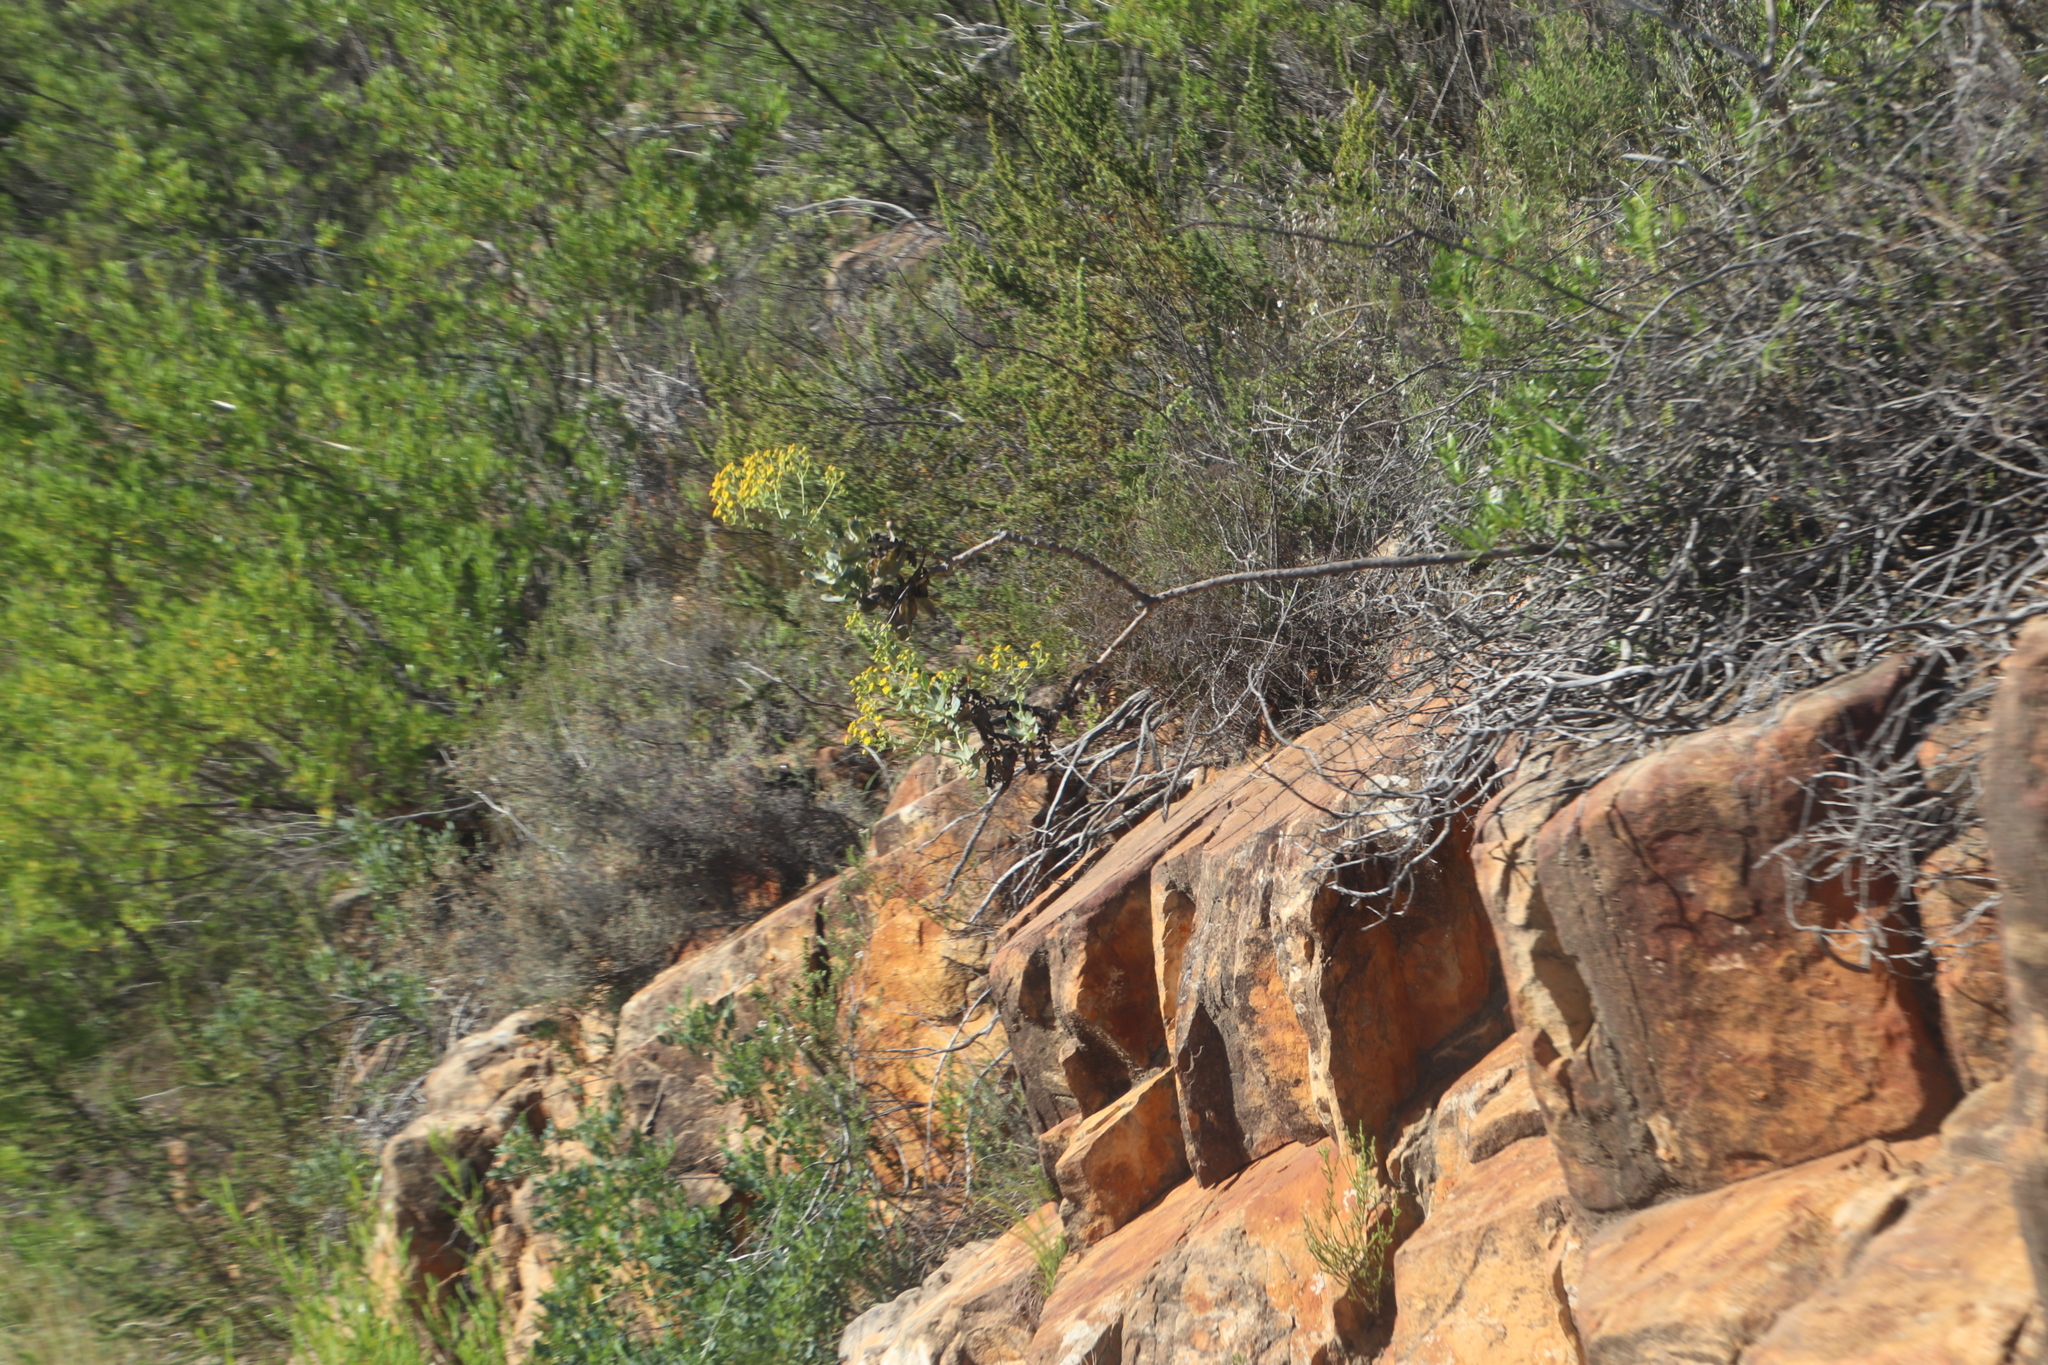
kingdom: Plantae
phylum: Tracheophyta
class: Magnoliopsida
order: Asterales
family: Asteraceae
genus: Othonna
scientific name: Othonna parviflora
